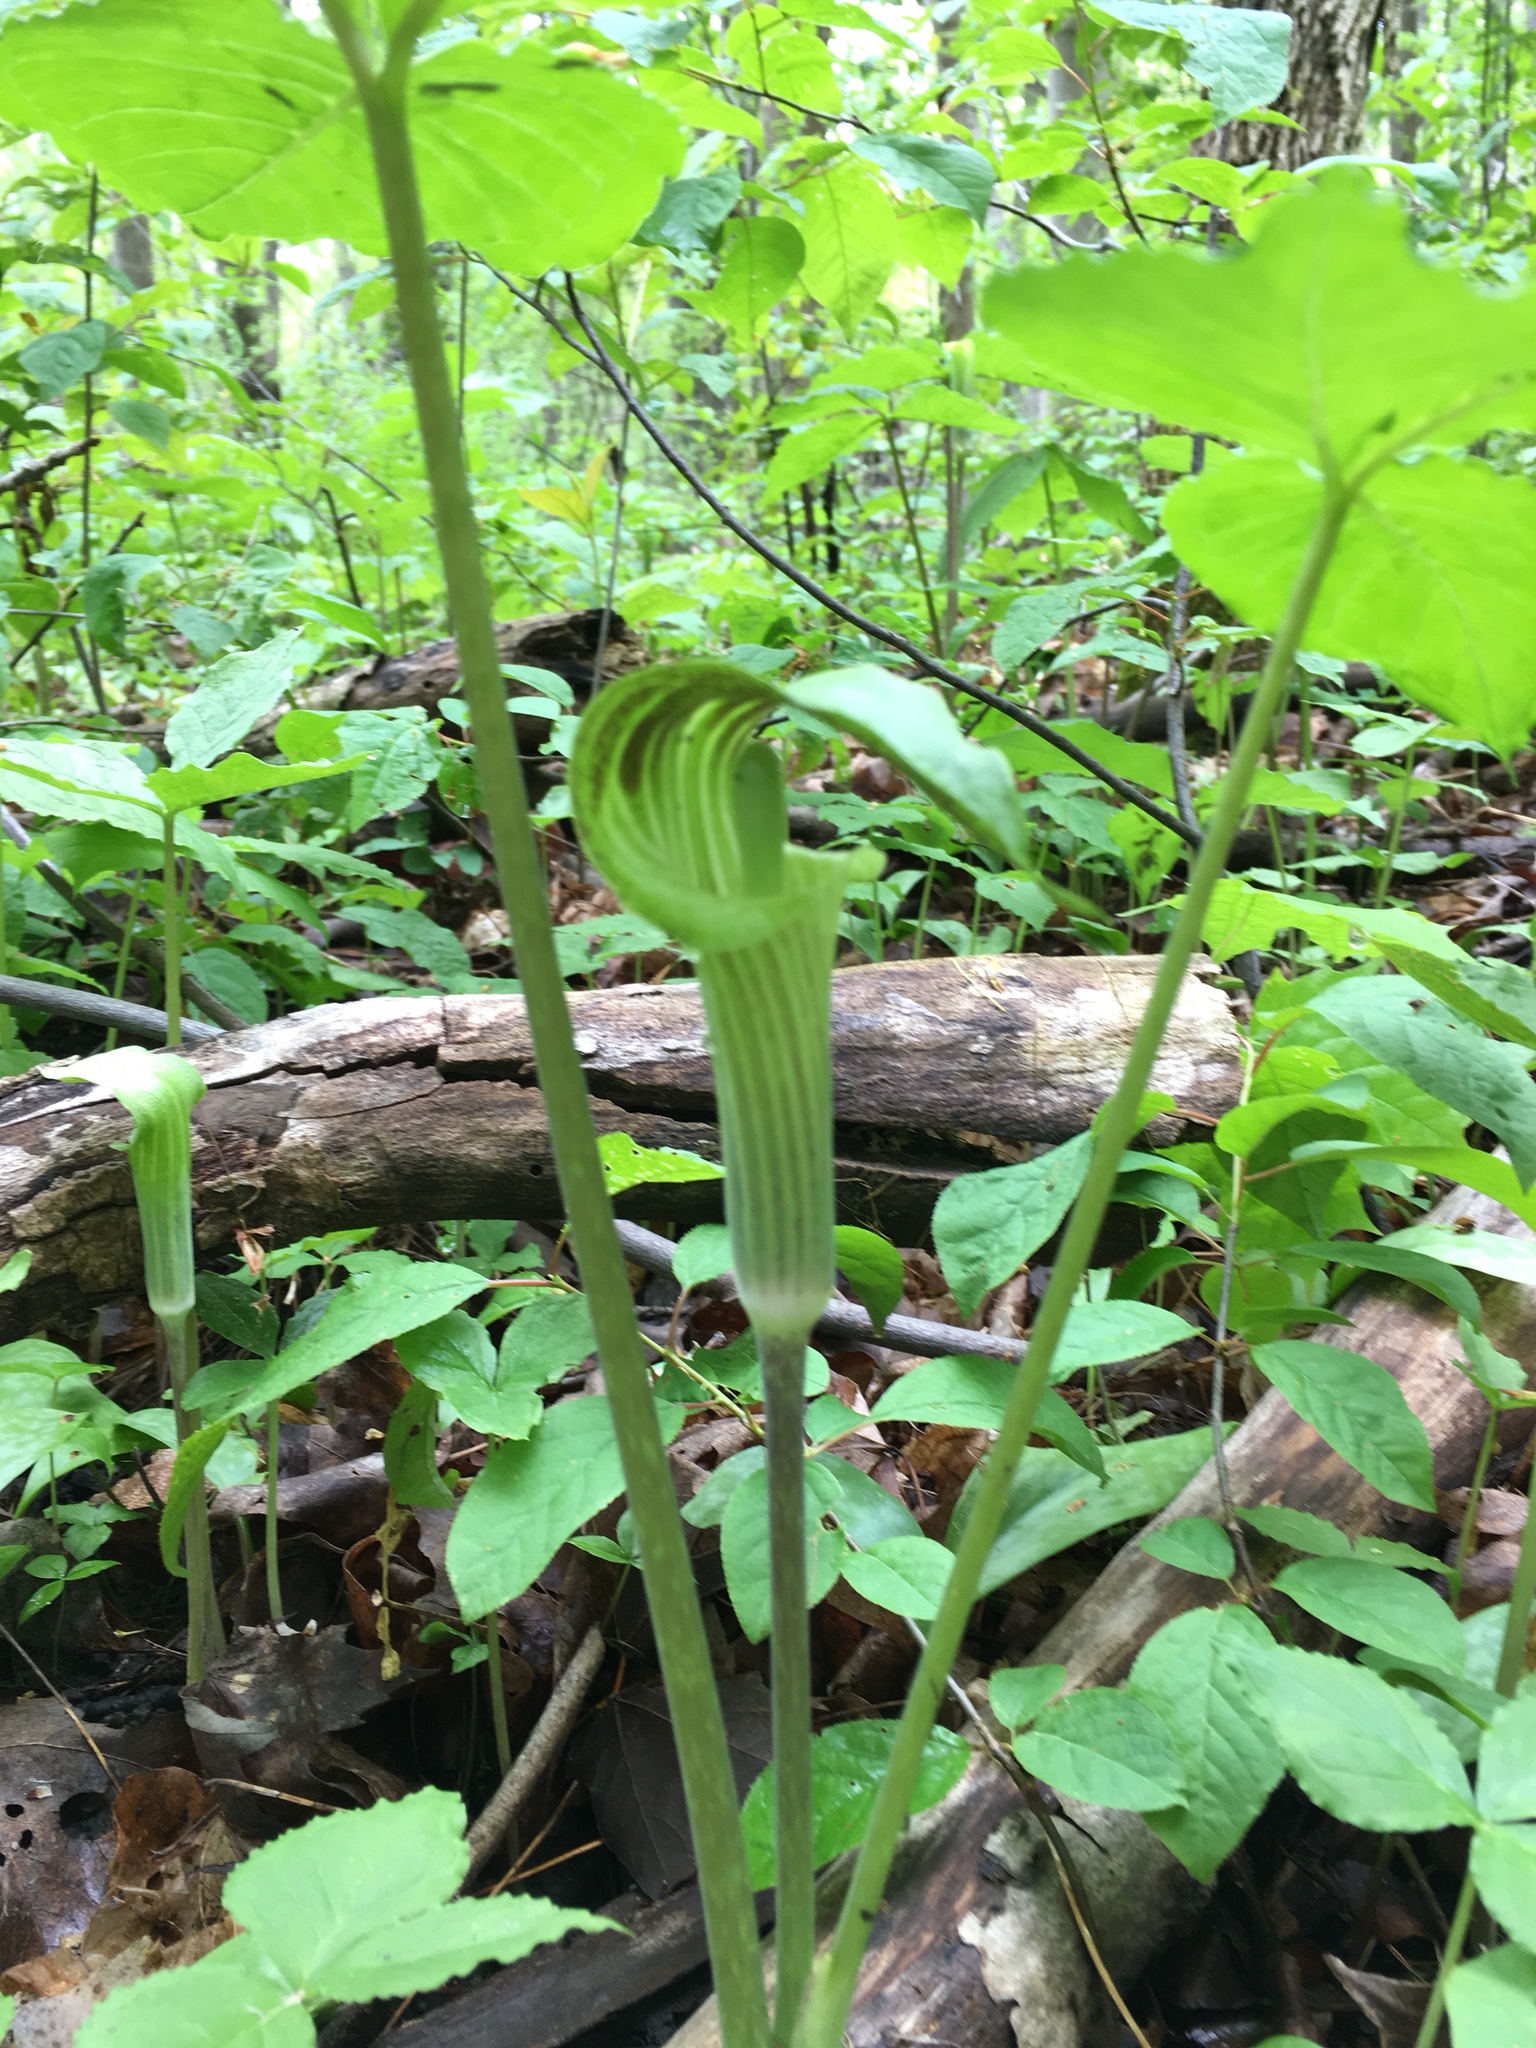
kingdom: Plantae
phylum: Tracheophyta
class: Liliopsida
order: Alismatales
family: Araceae
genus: Arisaema
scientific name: Arisaema triphyllum
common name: Jack-in-the-pulpit
